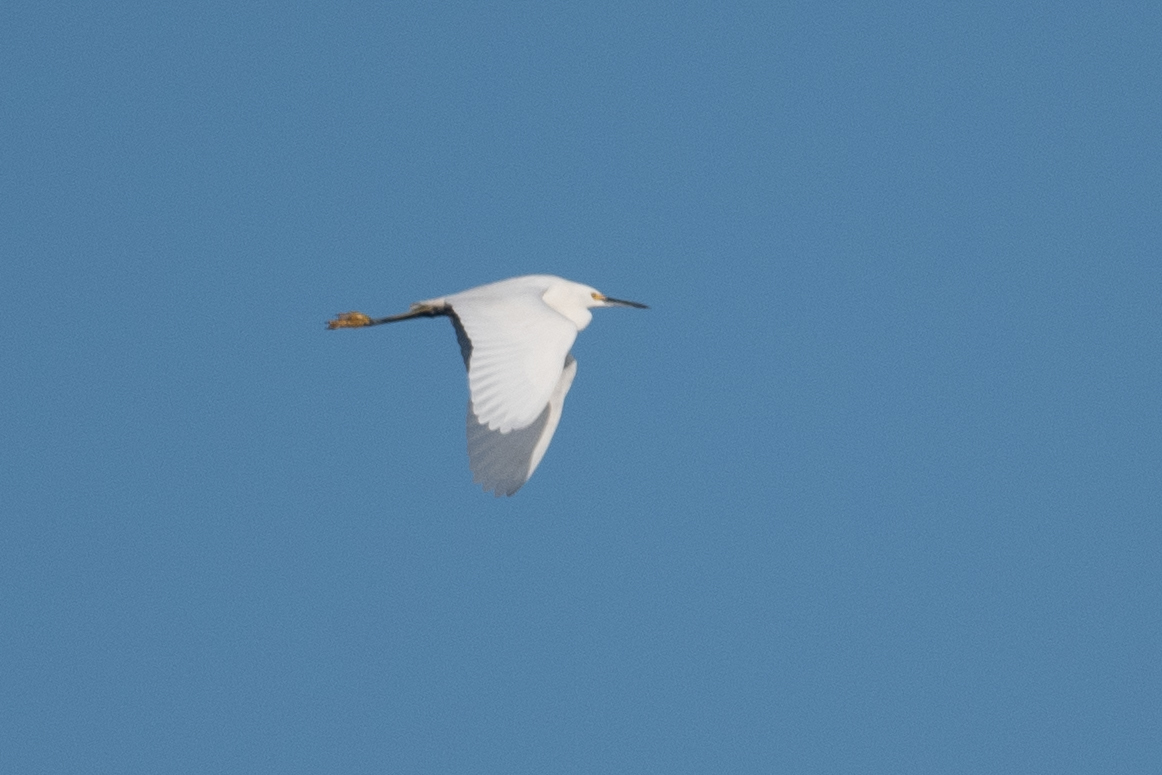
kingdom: Animalia
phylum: Chordata
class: Aves
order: Pelecaniformes
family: Ardeidae
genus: Egretta
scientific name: Egretta thula
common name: Snowy egret
